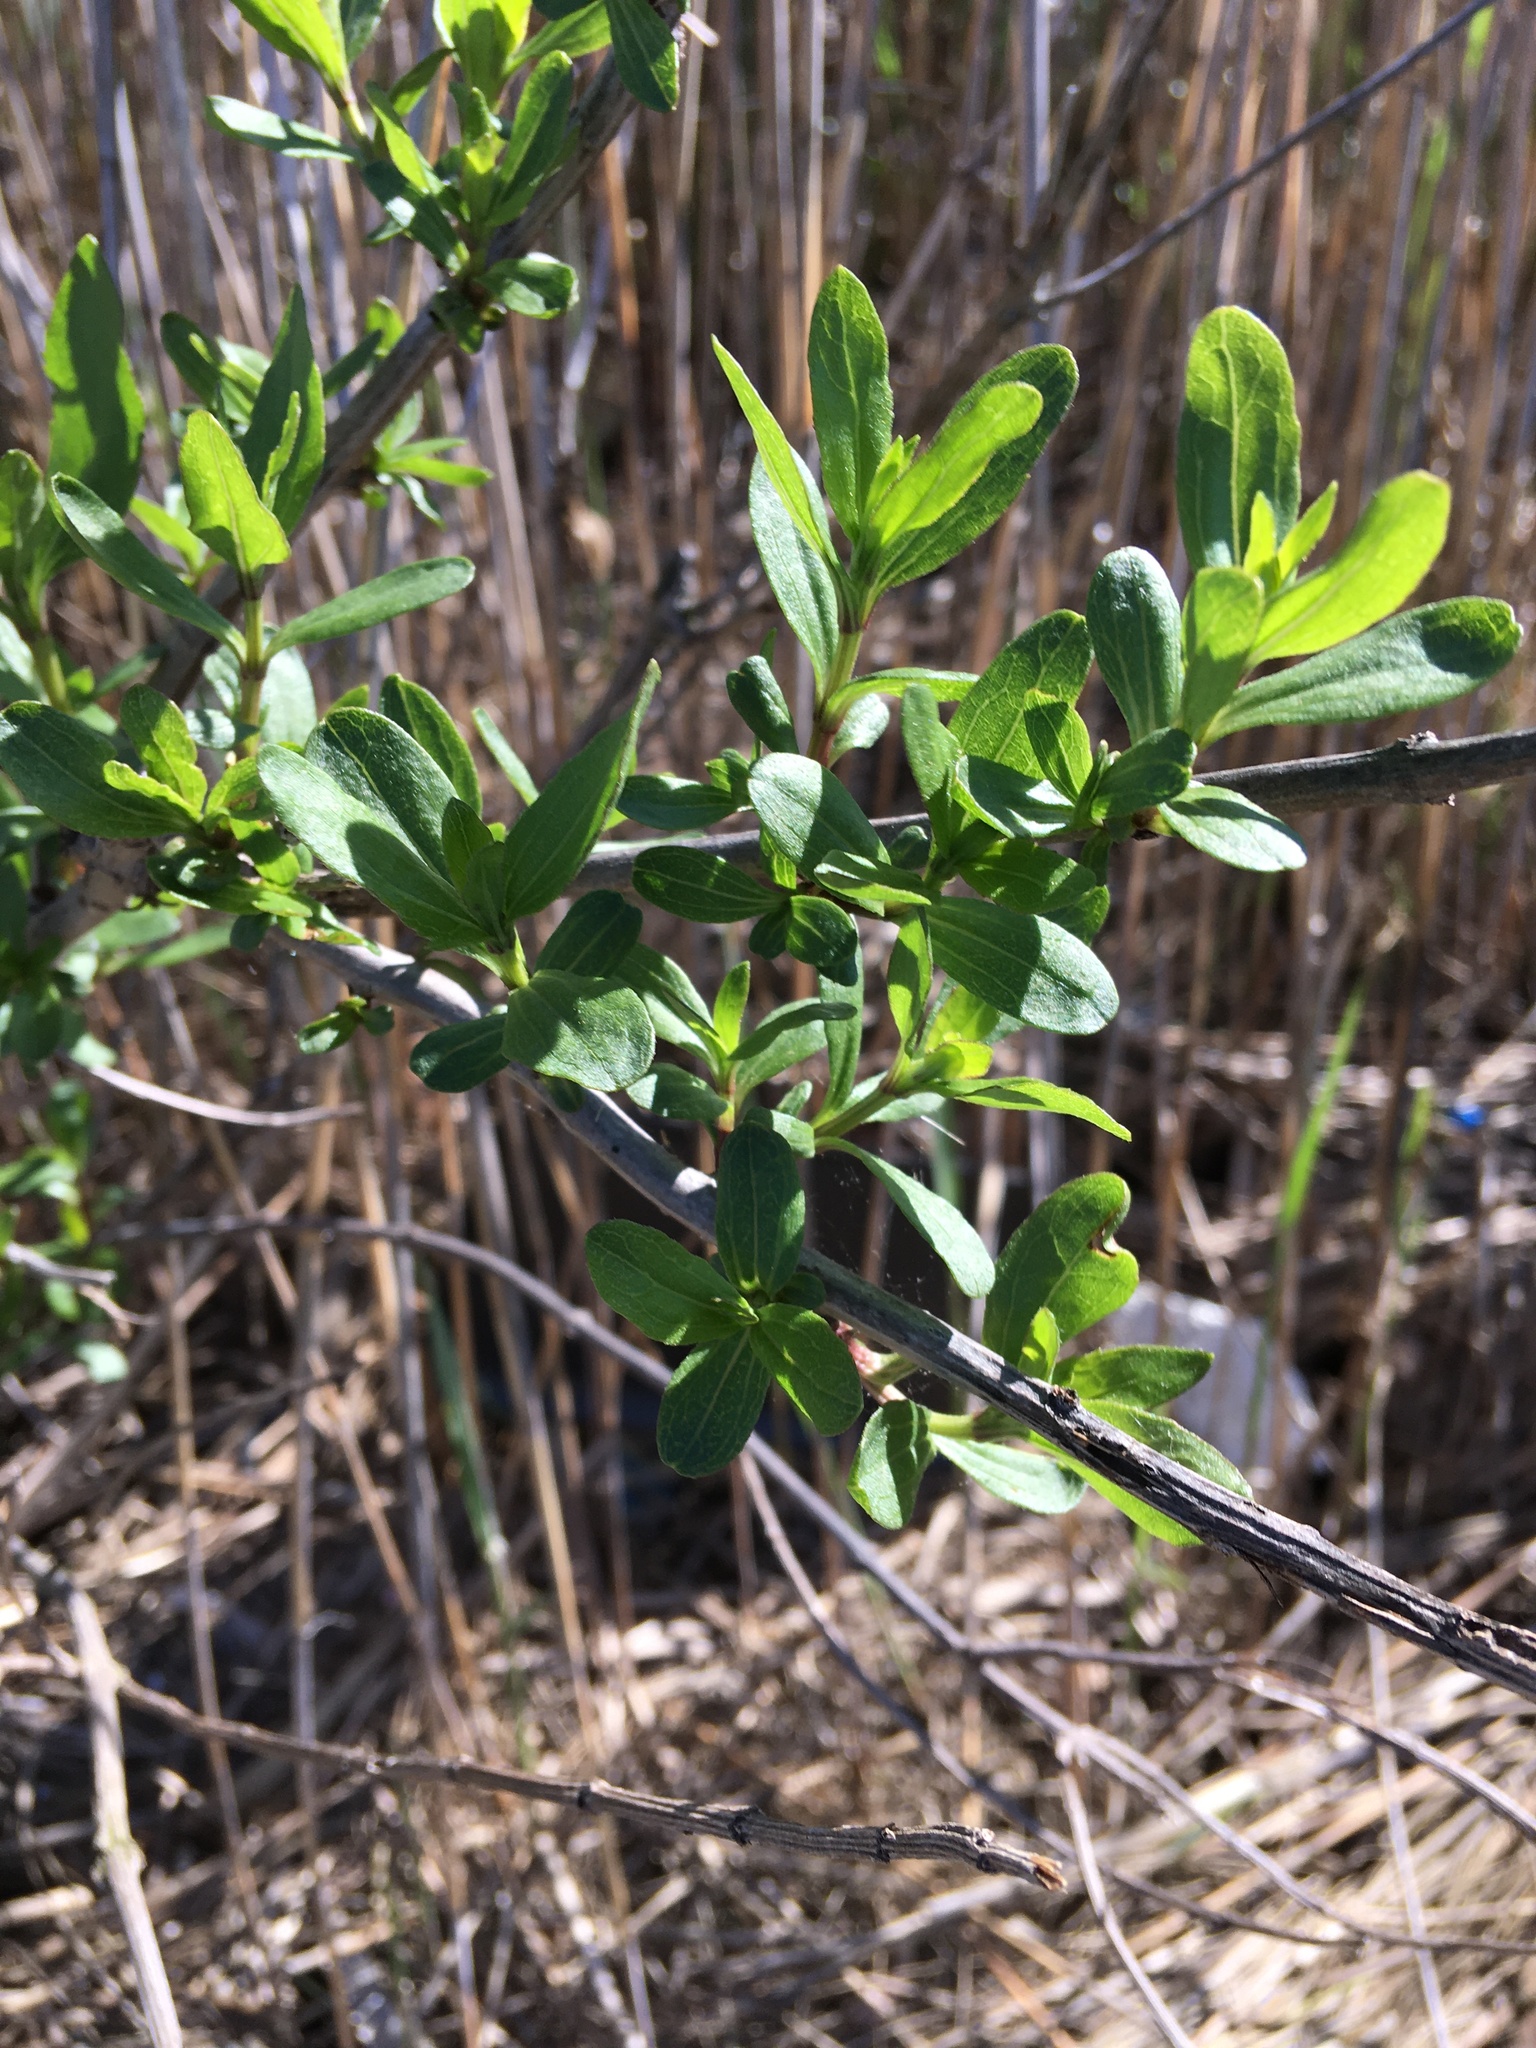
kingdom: Plantae
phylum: Tracheophyta
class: Magnoliopsida
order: Asterales
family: Asteraceae
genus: Iva
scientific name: Iva frutescens
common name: Big-leaved marsh-elder
